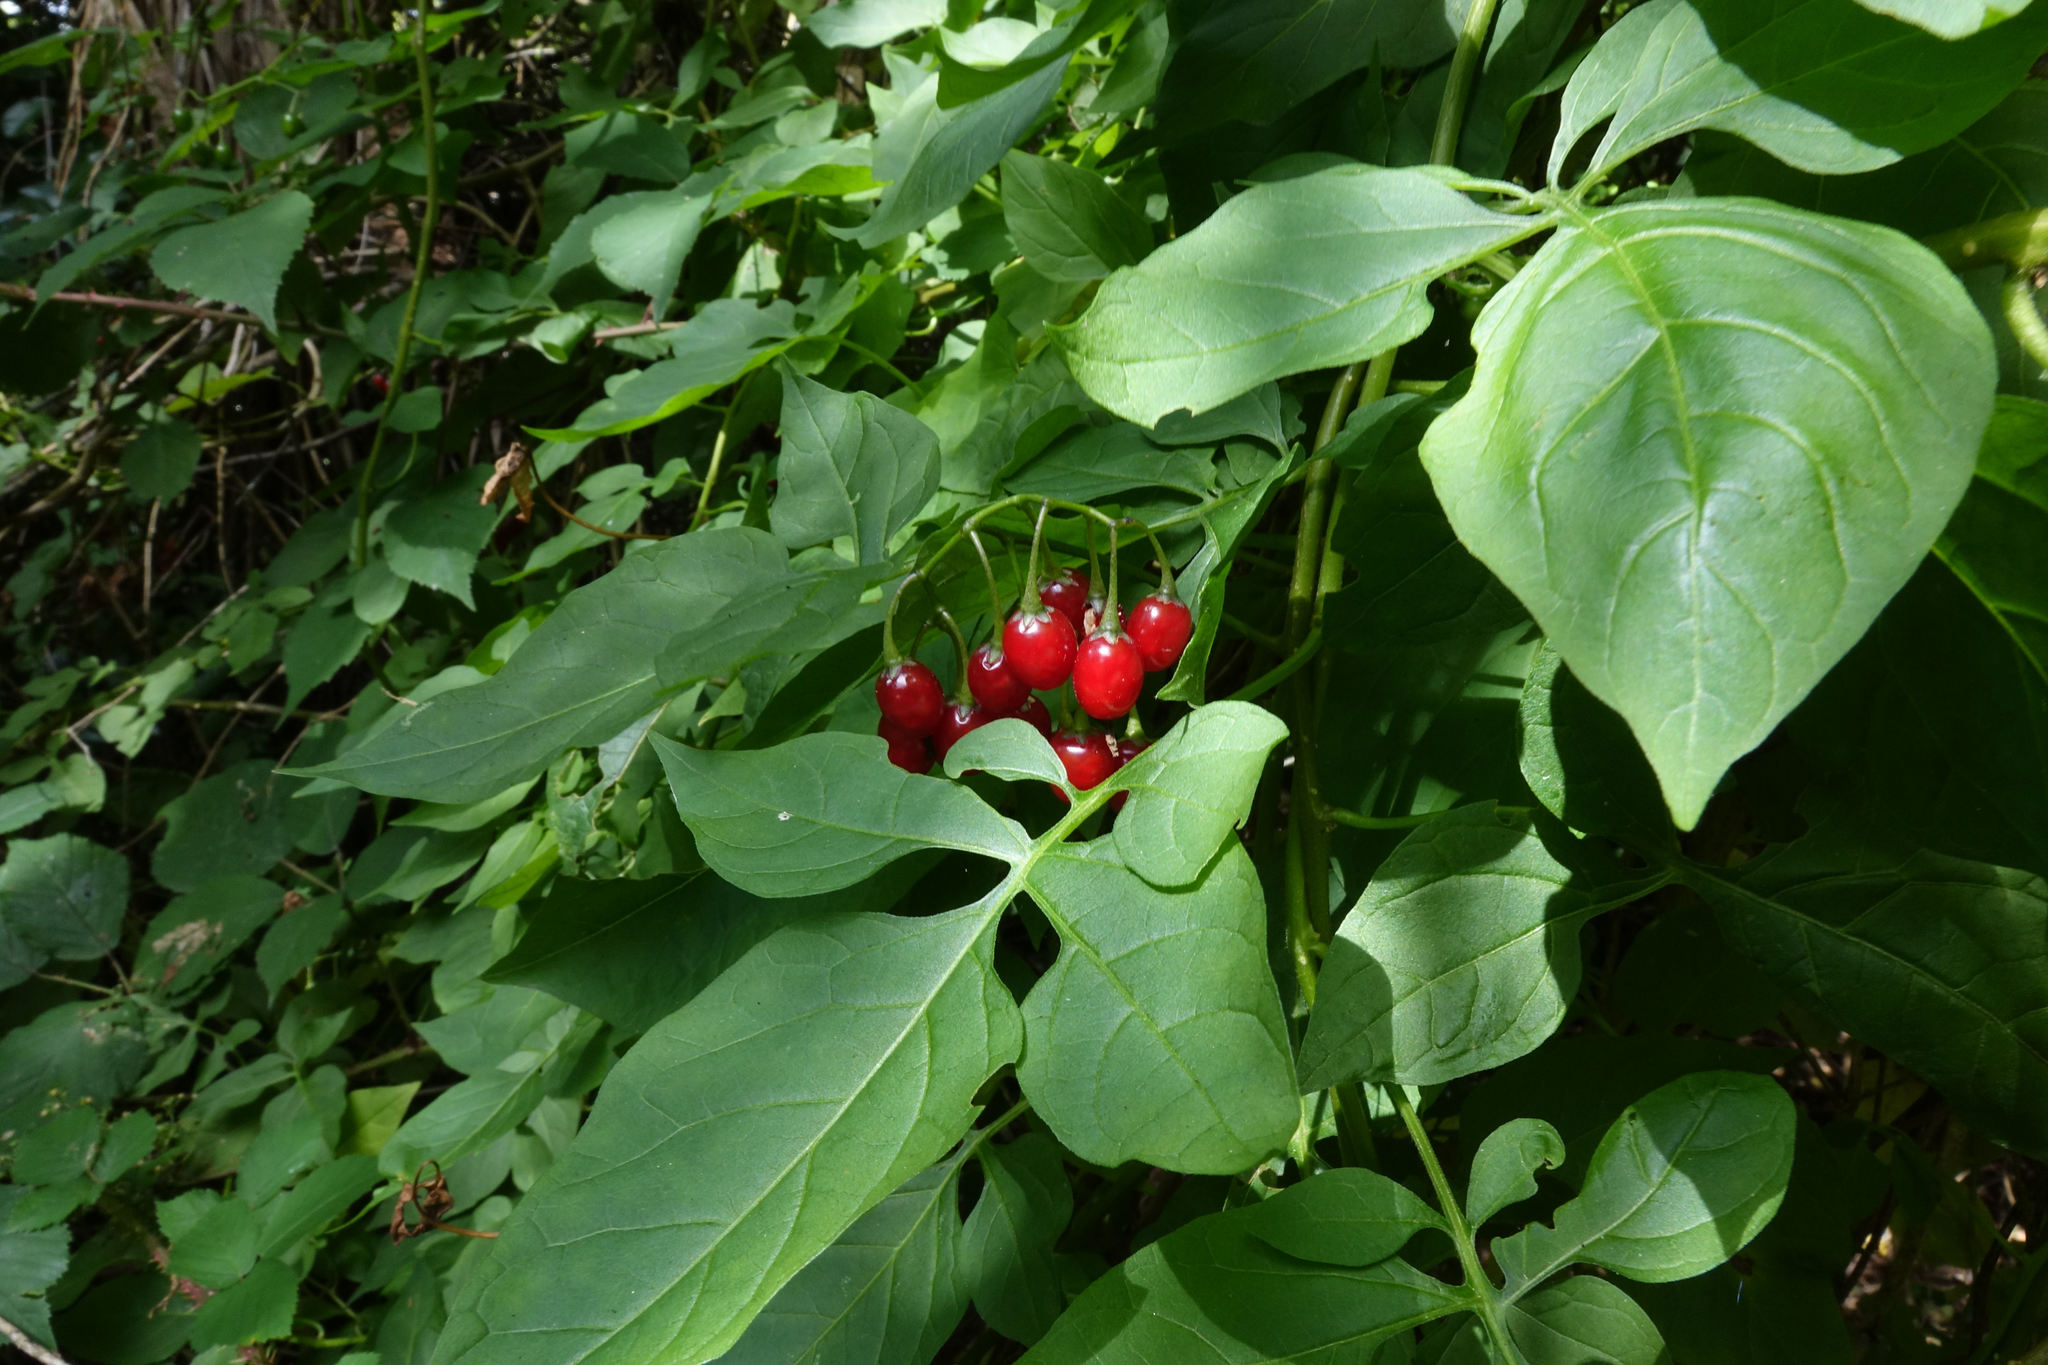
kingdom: Plantae
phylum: Tracheophyta
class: Magnoliopsida
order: Solanales
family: Solanaceae
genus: Solanum
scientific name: Solanum dulcamara
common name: Climbing nightshade
